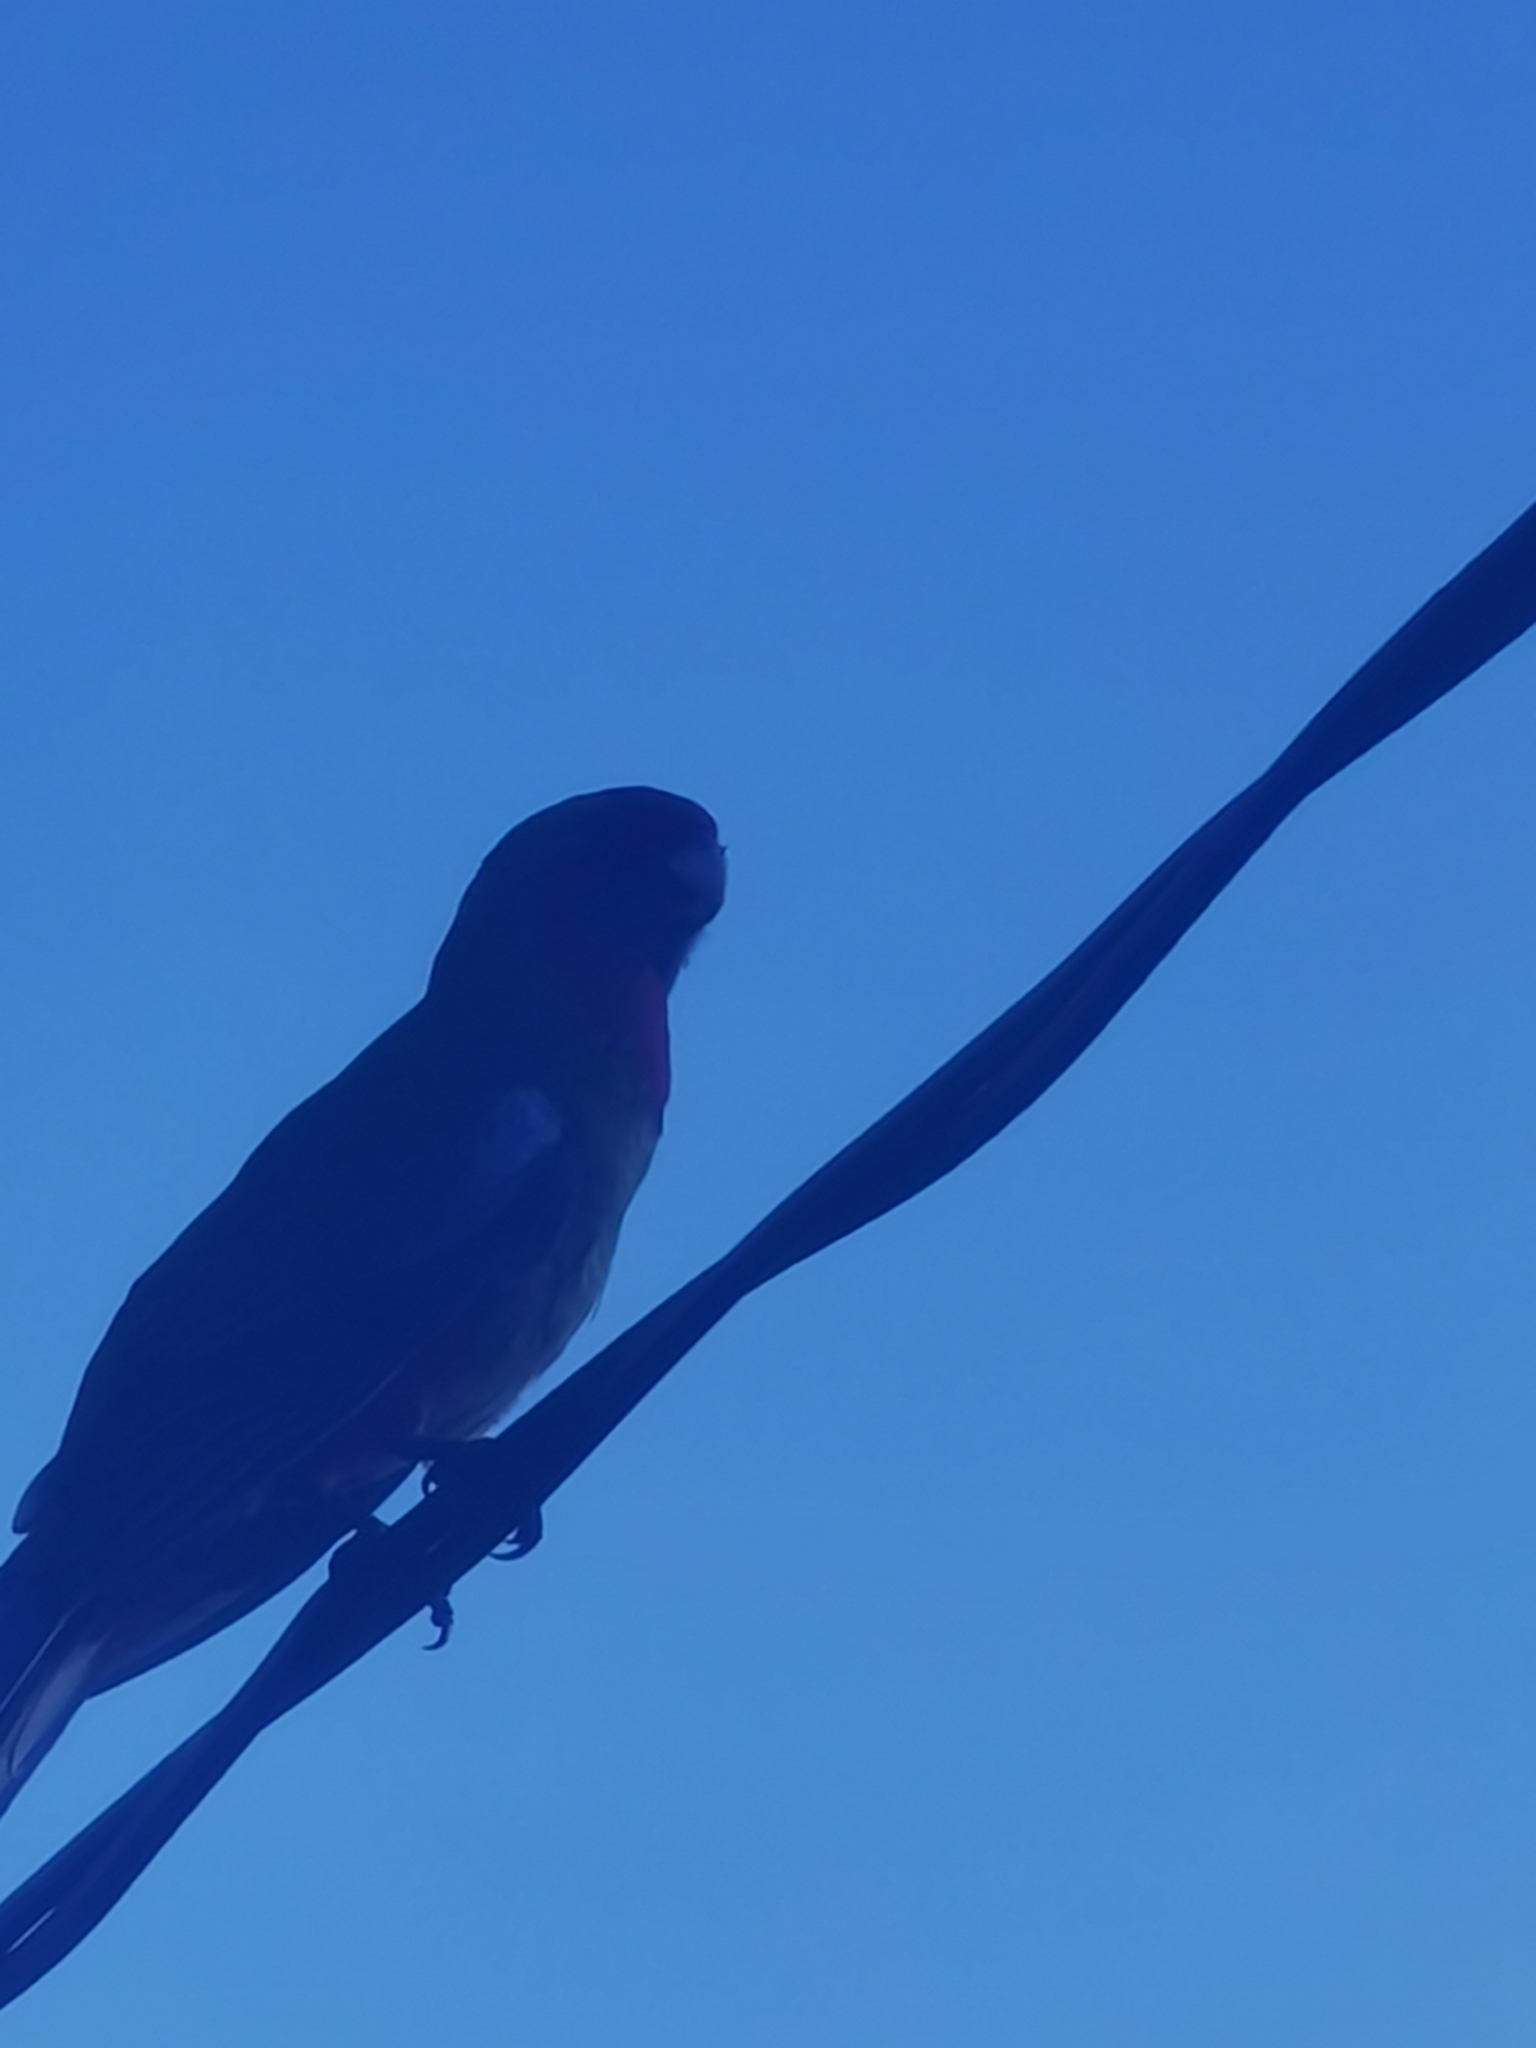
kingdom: Animalia
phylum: Chordata
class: Aves
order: Psittaciformes
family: Psittacidae
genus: Platycercus
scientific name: Platycercus elegans
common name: Crimson rosella
